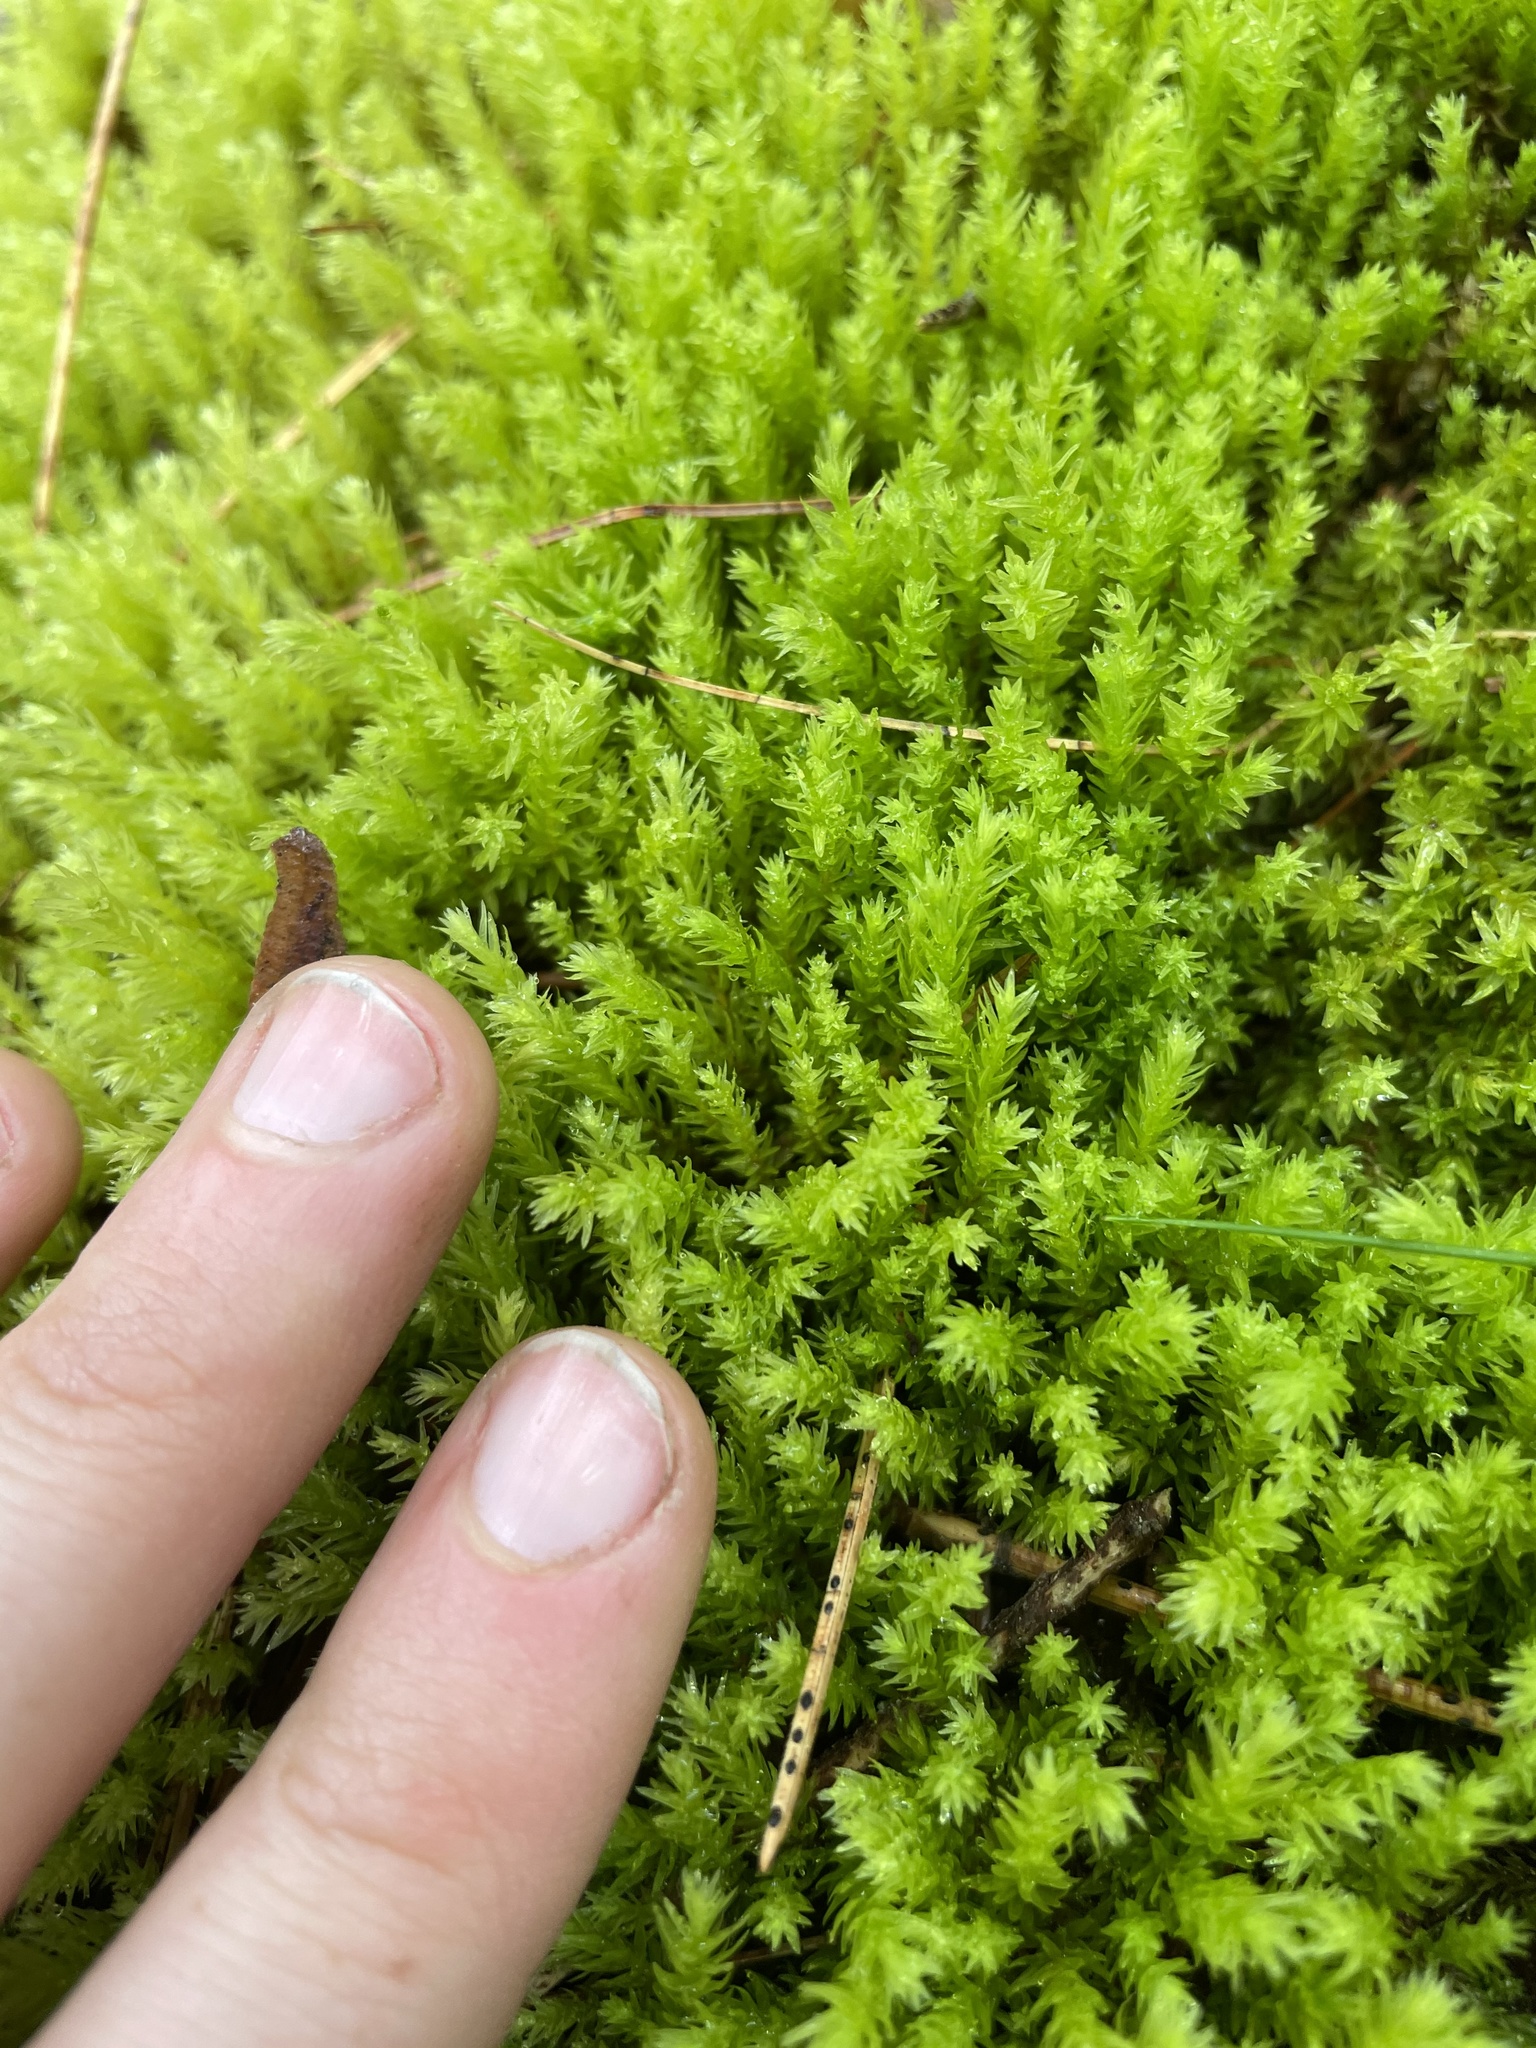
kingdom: Plantae
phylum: Bryophyta
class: Bryopsida
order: Aulacomniales
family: Aulacomniaceae
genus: Aulacomnium
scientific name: Aulacomnium palustre
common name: Bog groove-moss
